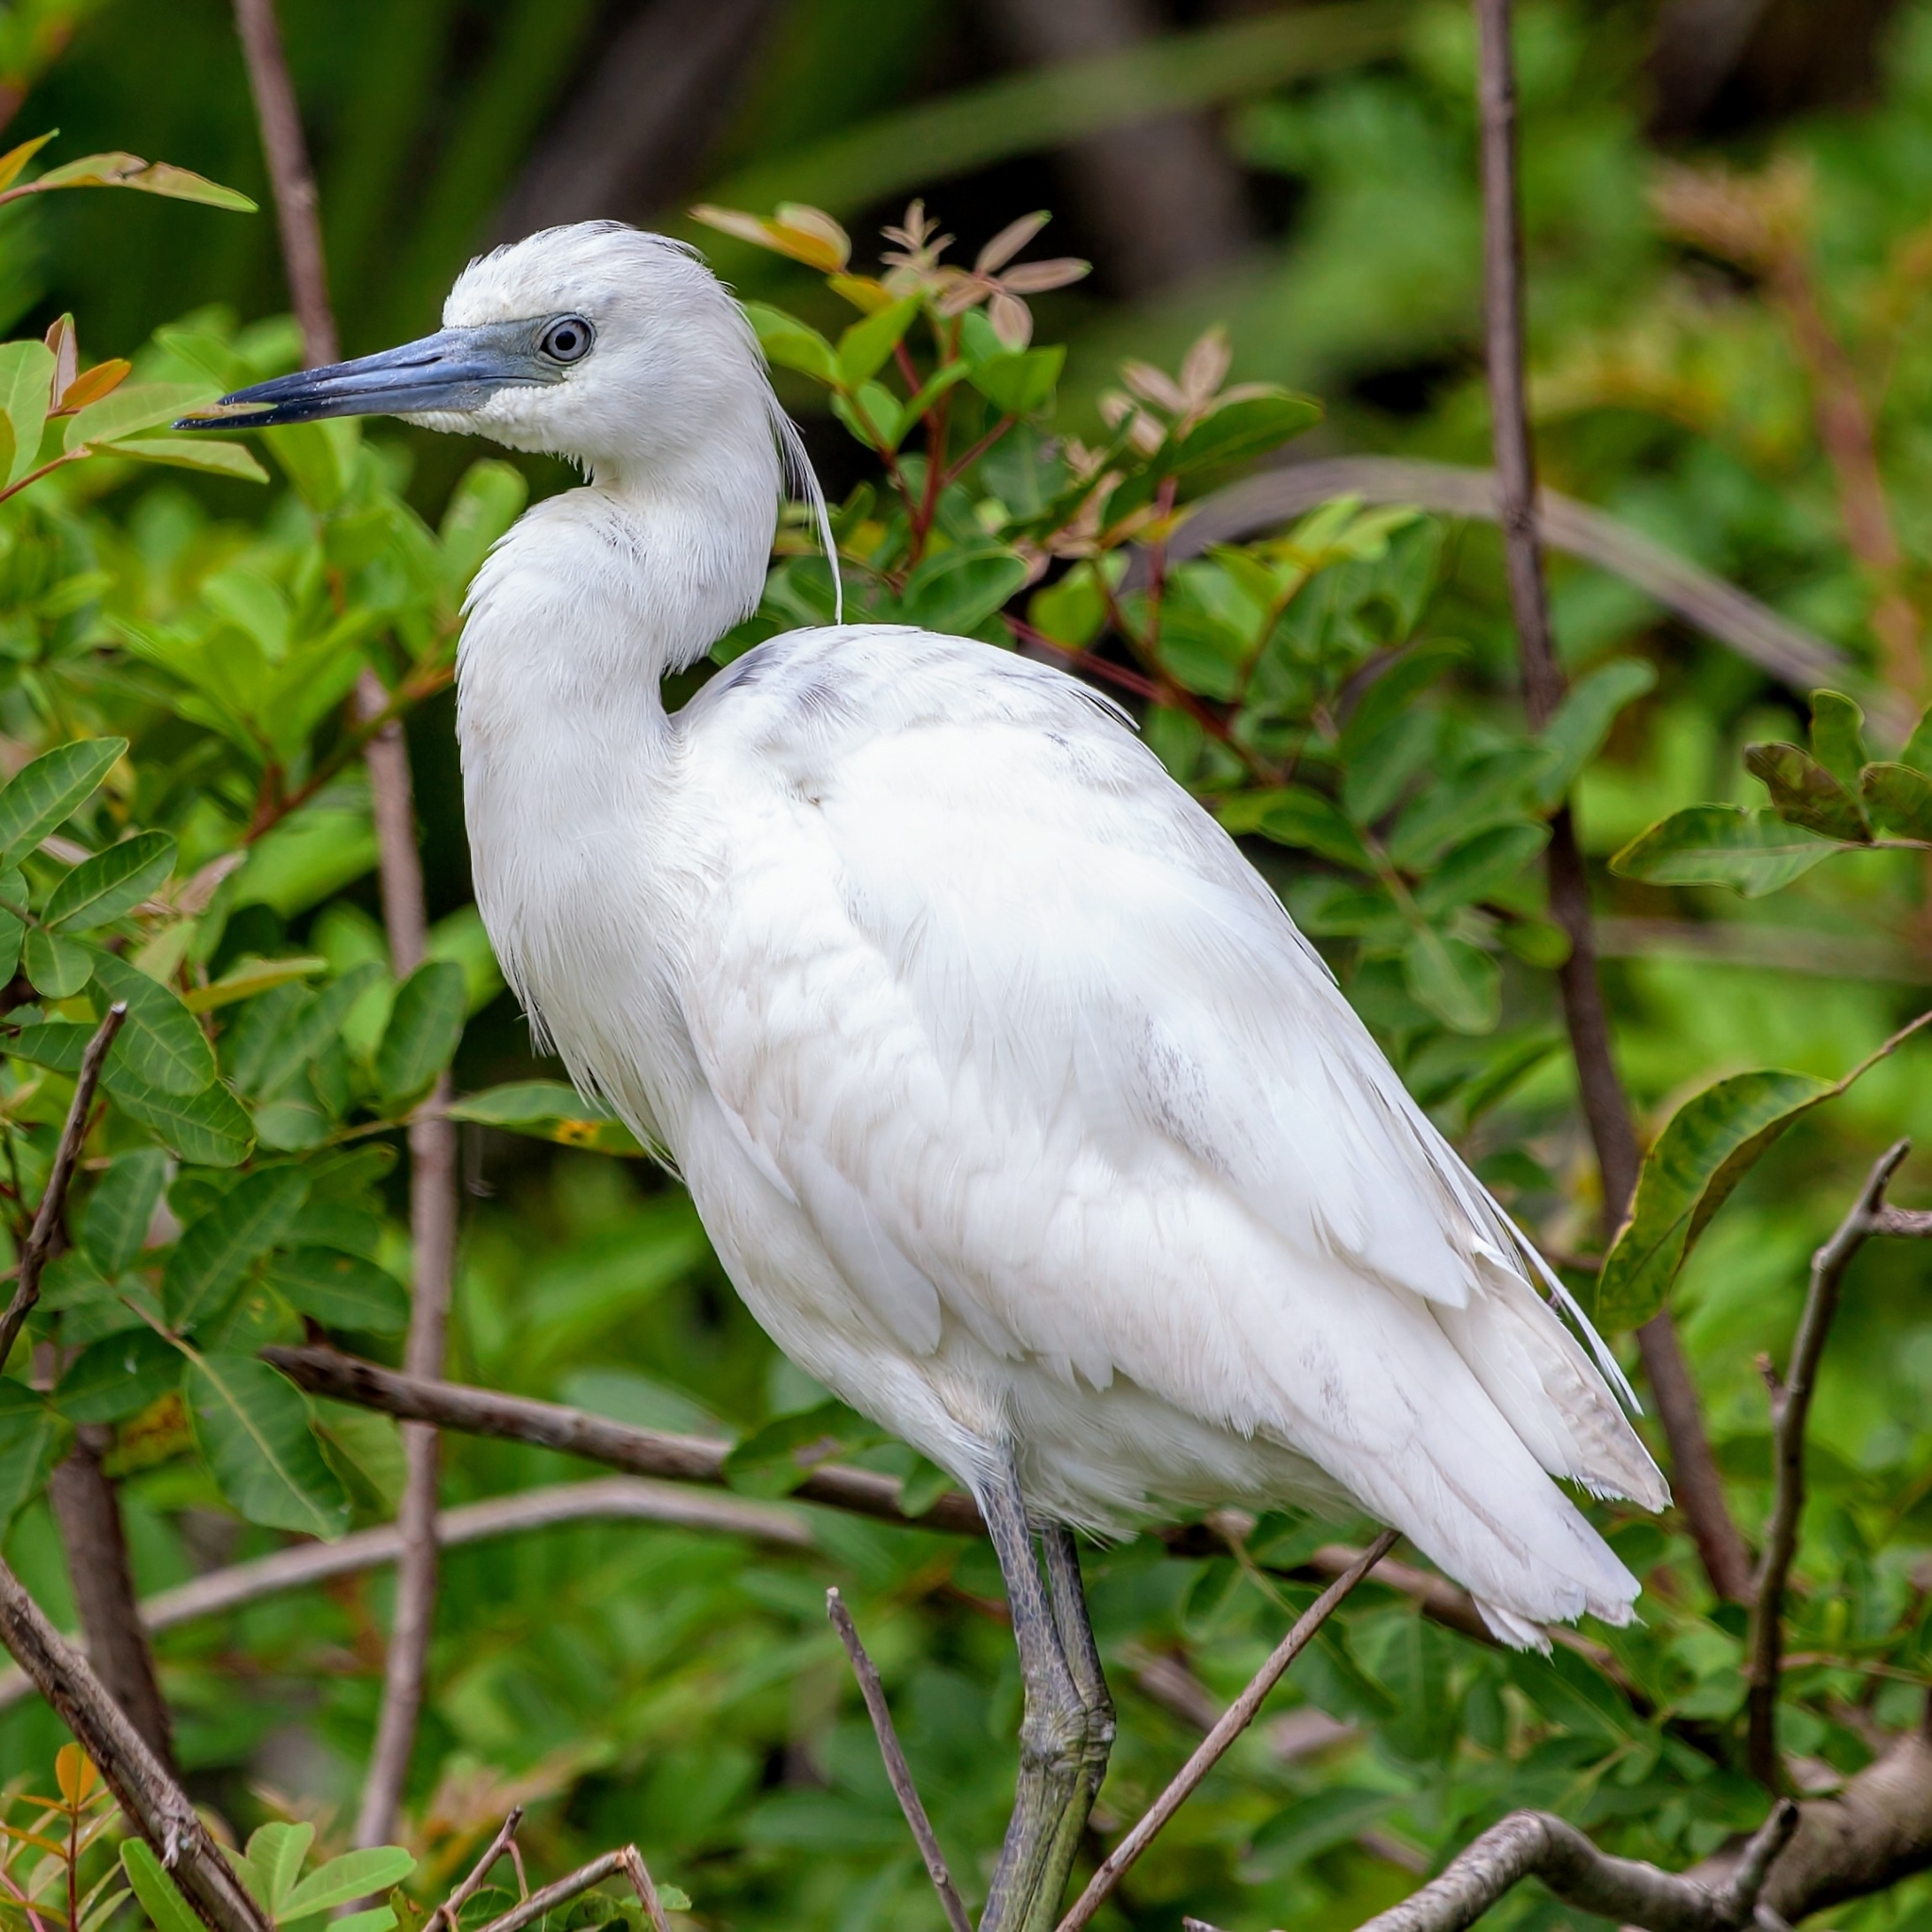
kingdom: Animalia
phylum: Chordata
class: Aves
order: Pelecaniformes
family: Ardeidae
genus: Egretta
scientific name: Egretta caerulea
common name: Little blue heron
